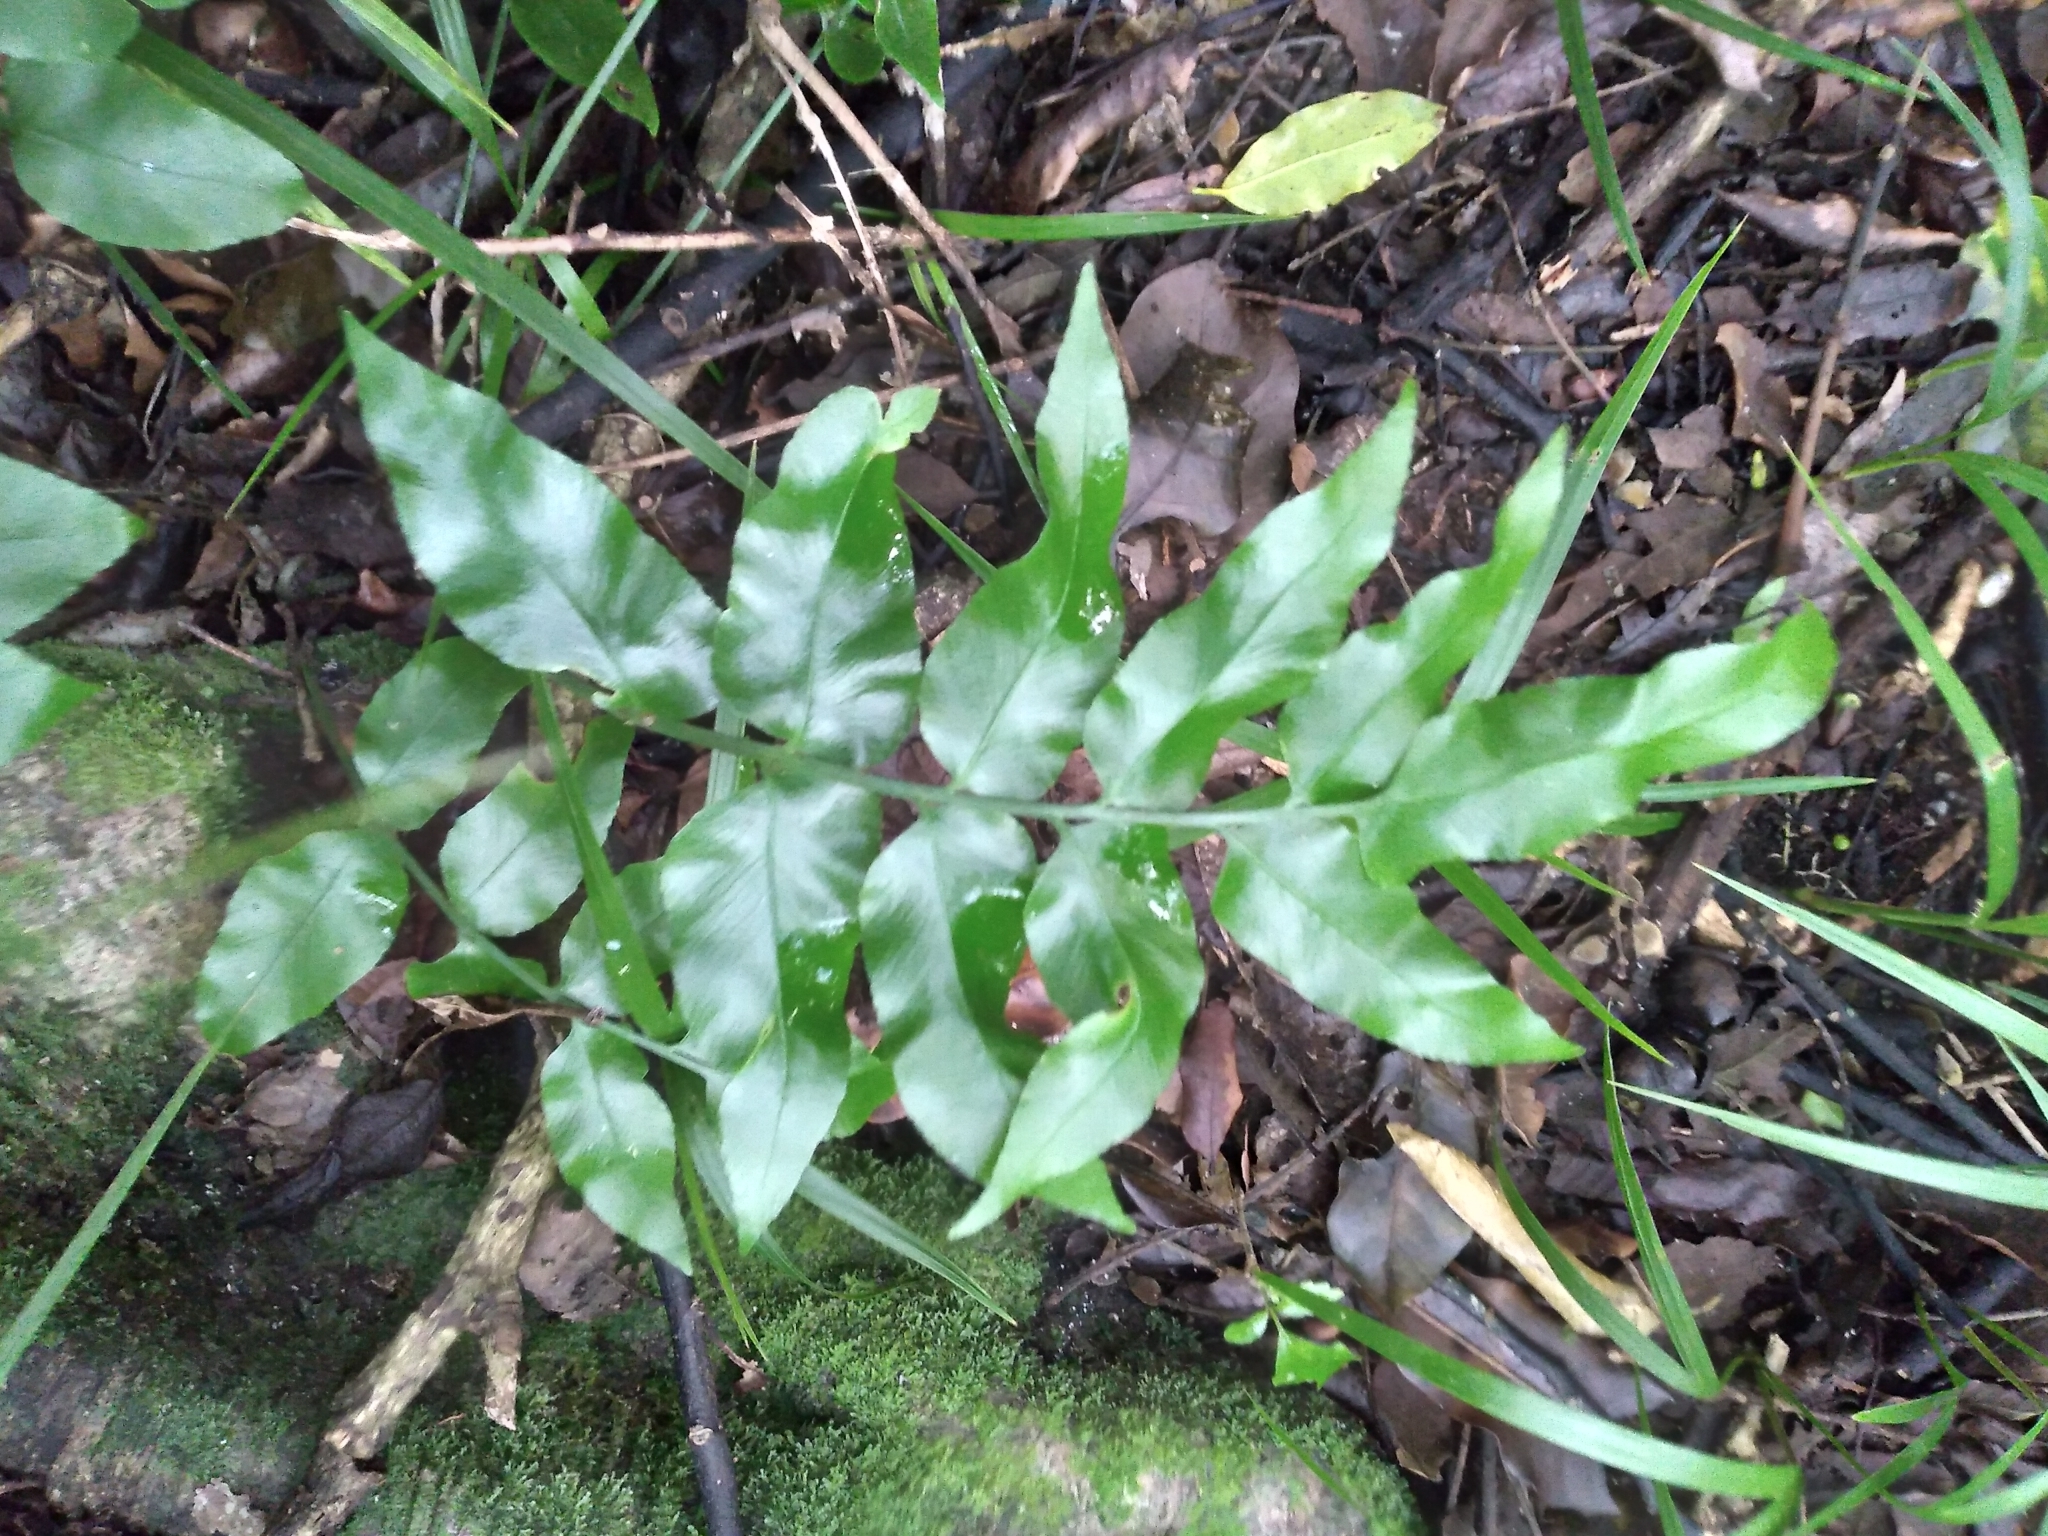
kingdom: Plantae
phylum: Tracheophyta
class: Polypodiopsida
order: Polypodiales
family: Aspleniaceae
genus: Asplenium
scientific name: Asplenium oblongifolium
